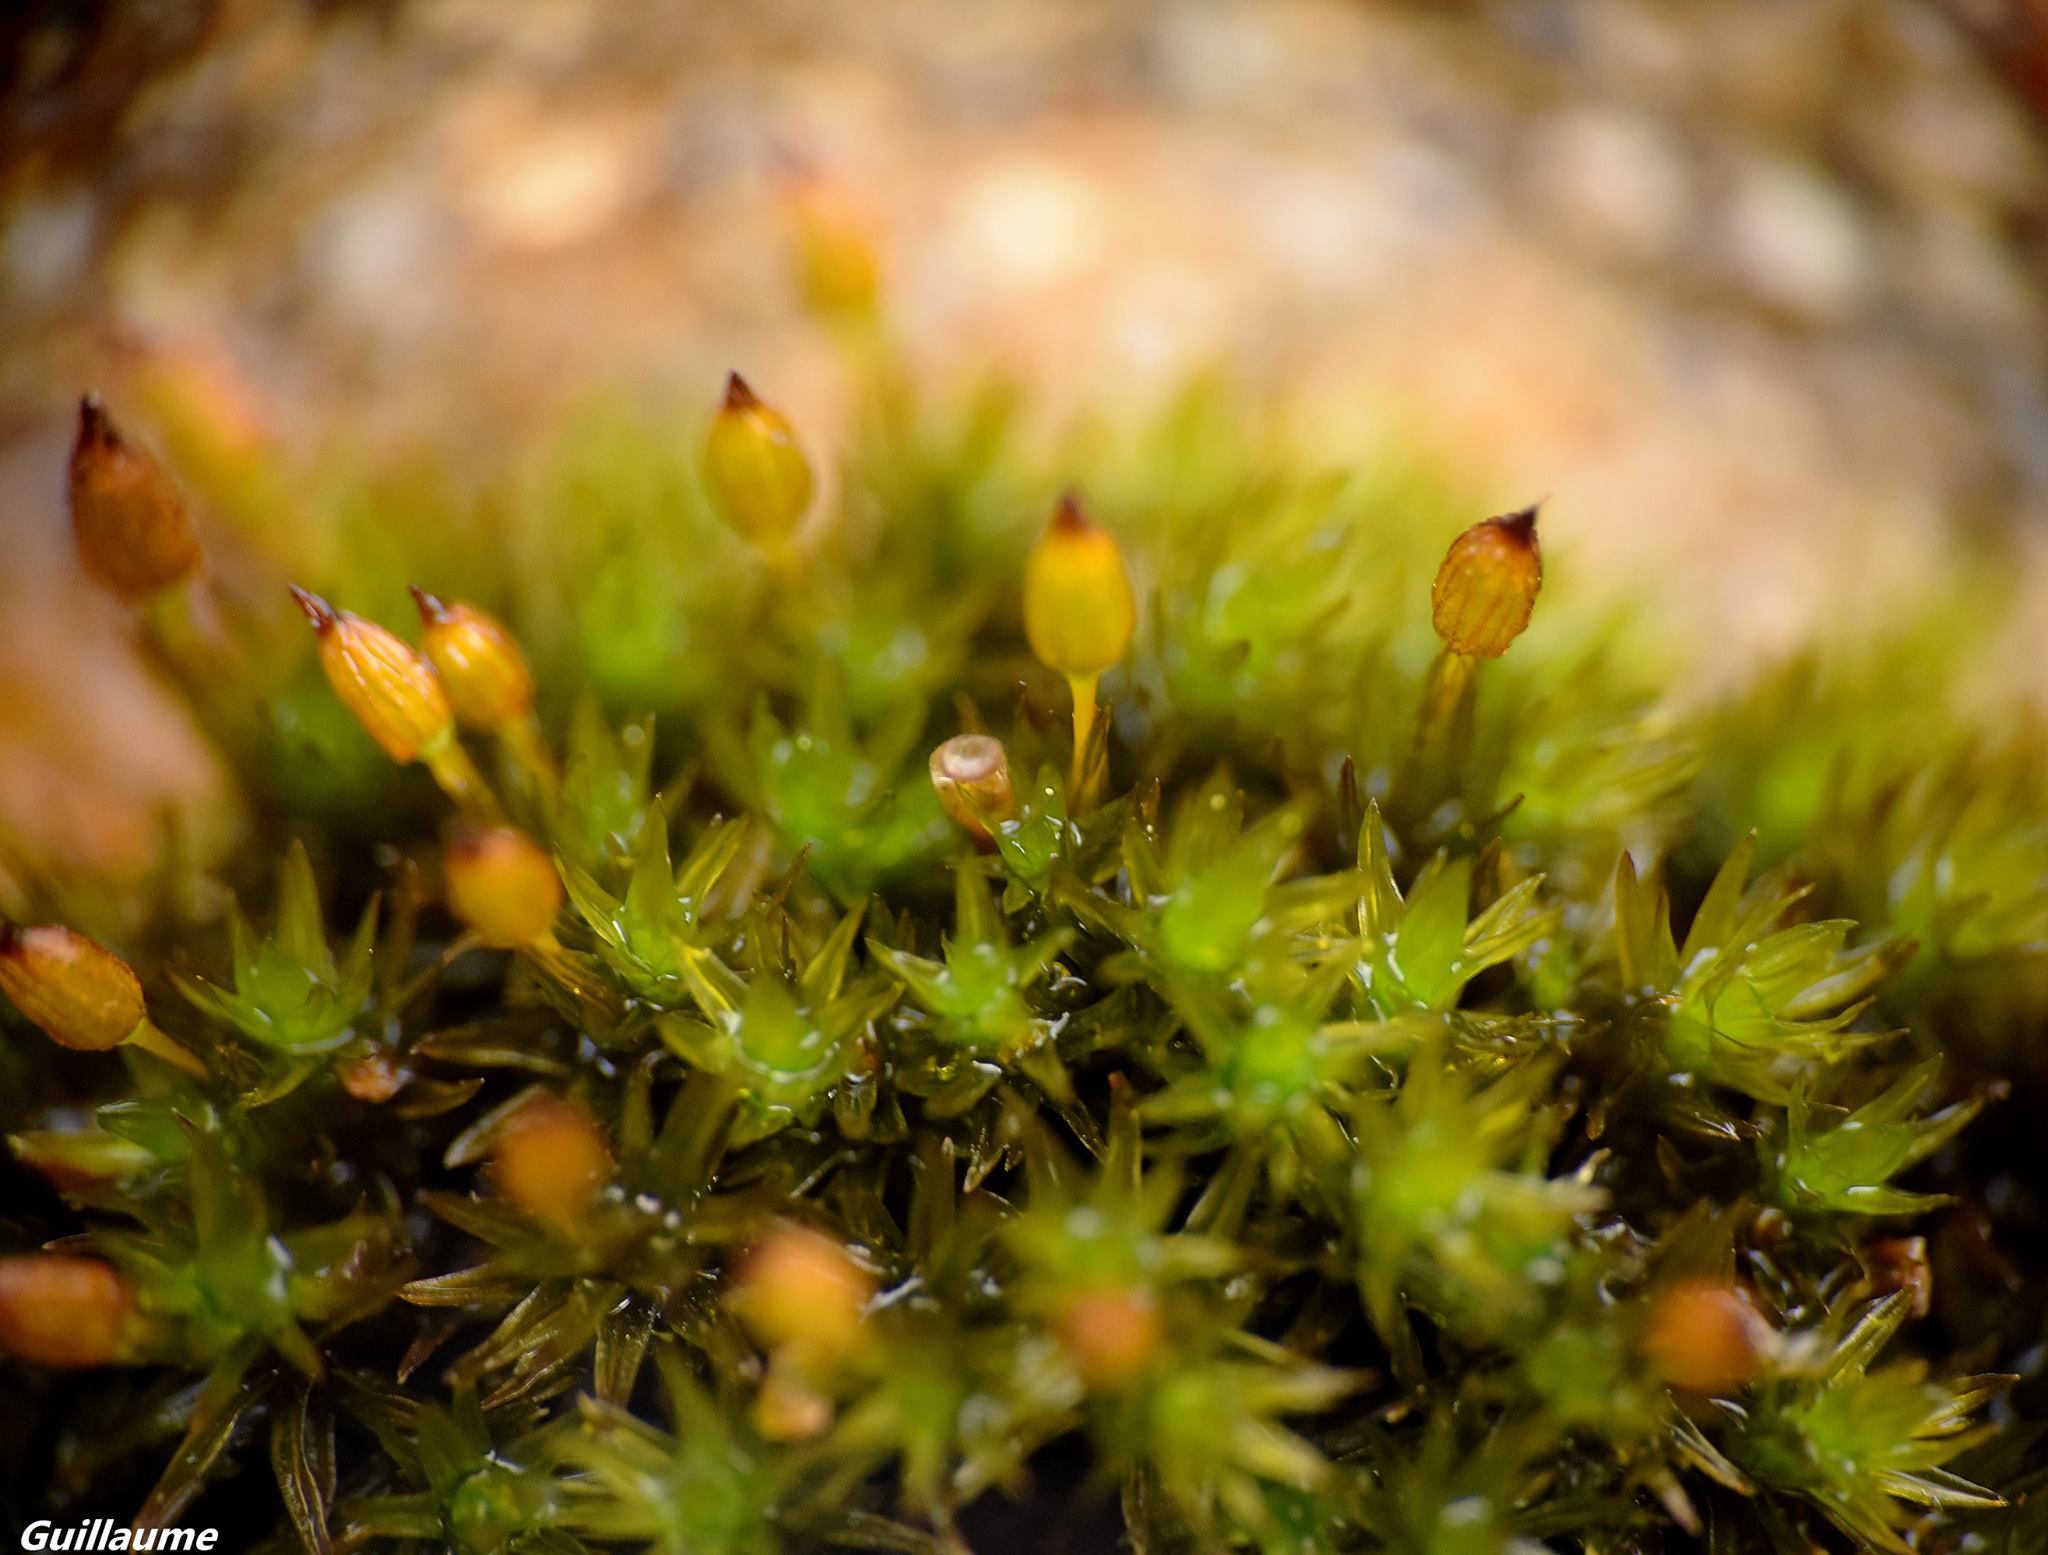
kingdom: Plantae
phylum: Bryophyta
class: Bryopsida
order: Orthotrichales
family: Orthotrichaceae
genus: Orthotrichum
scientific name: Orthotrichum anomalum
